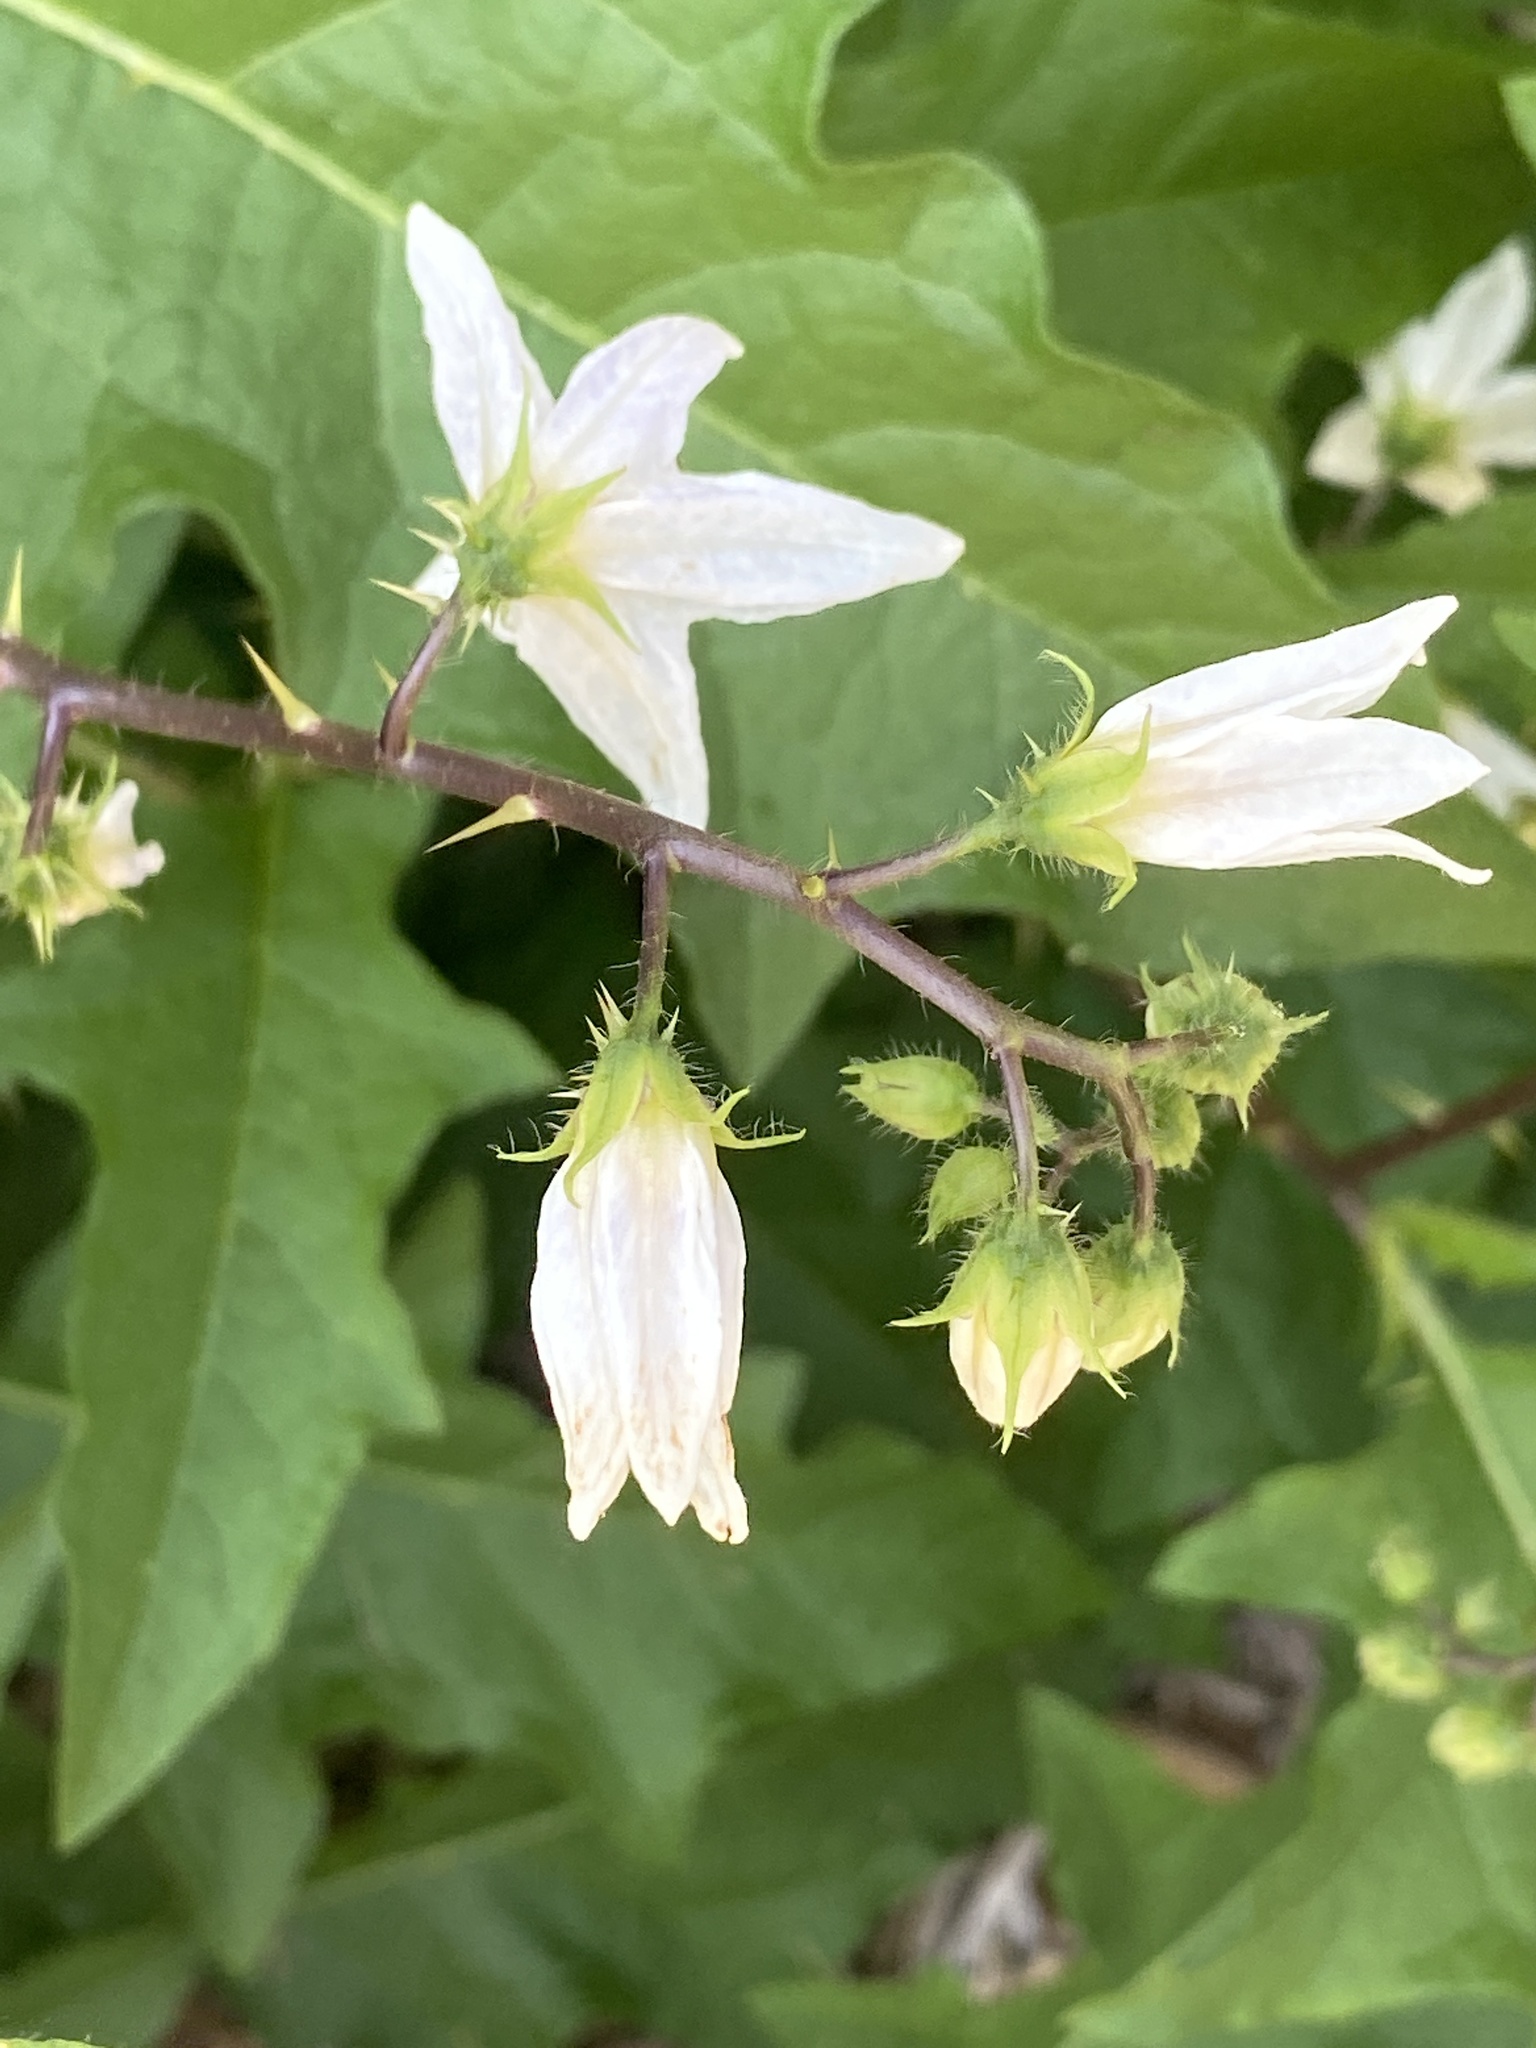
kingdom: Plantae
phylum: Tracheophyta
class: Magnoliopsida
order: Solanales
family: Solanaceae
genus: Solanum
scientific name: Solanum carolinense
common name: Horse-nettle
